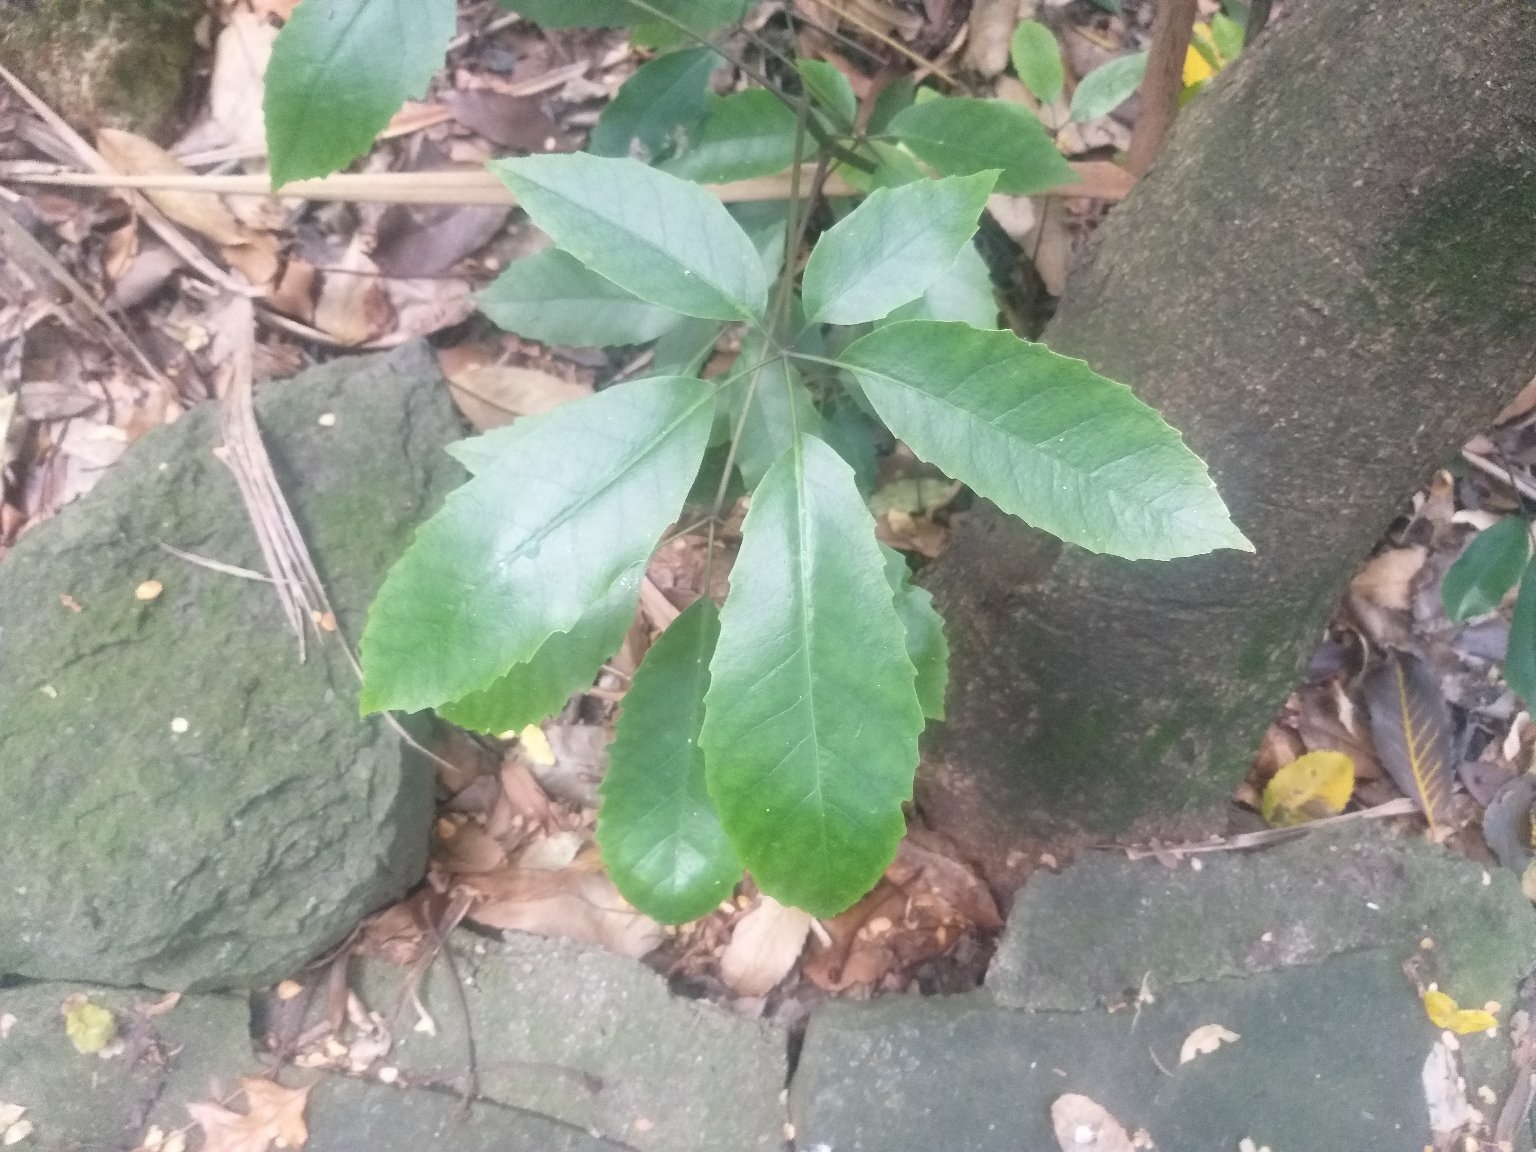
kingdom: Plantae
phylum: Tracheophyta
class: Magnoliopsida
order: Apiales
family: Araliaceae
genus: Neopanax
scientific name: Neopanax arboreus
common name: Five-fingers
